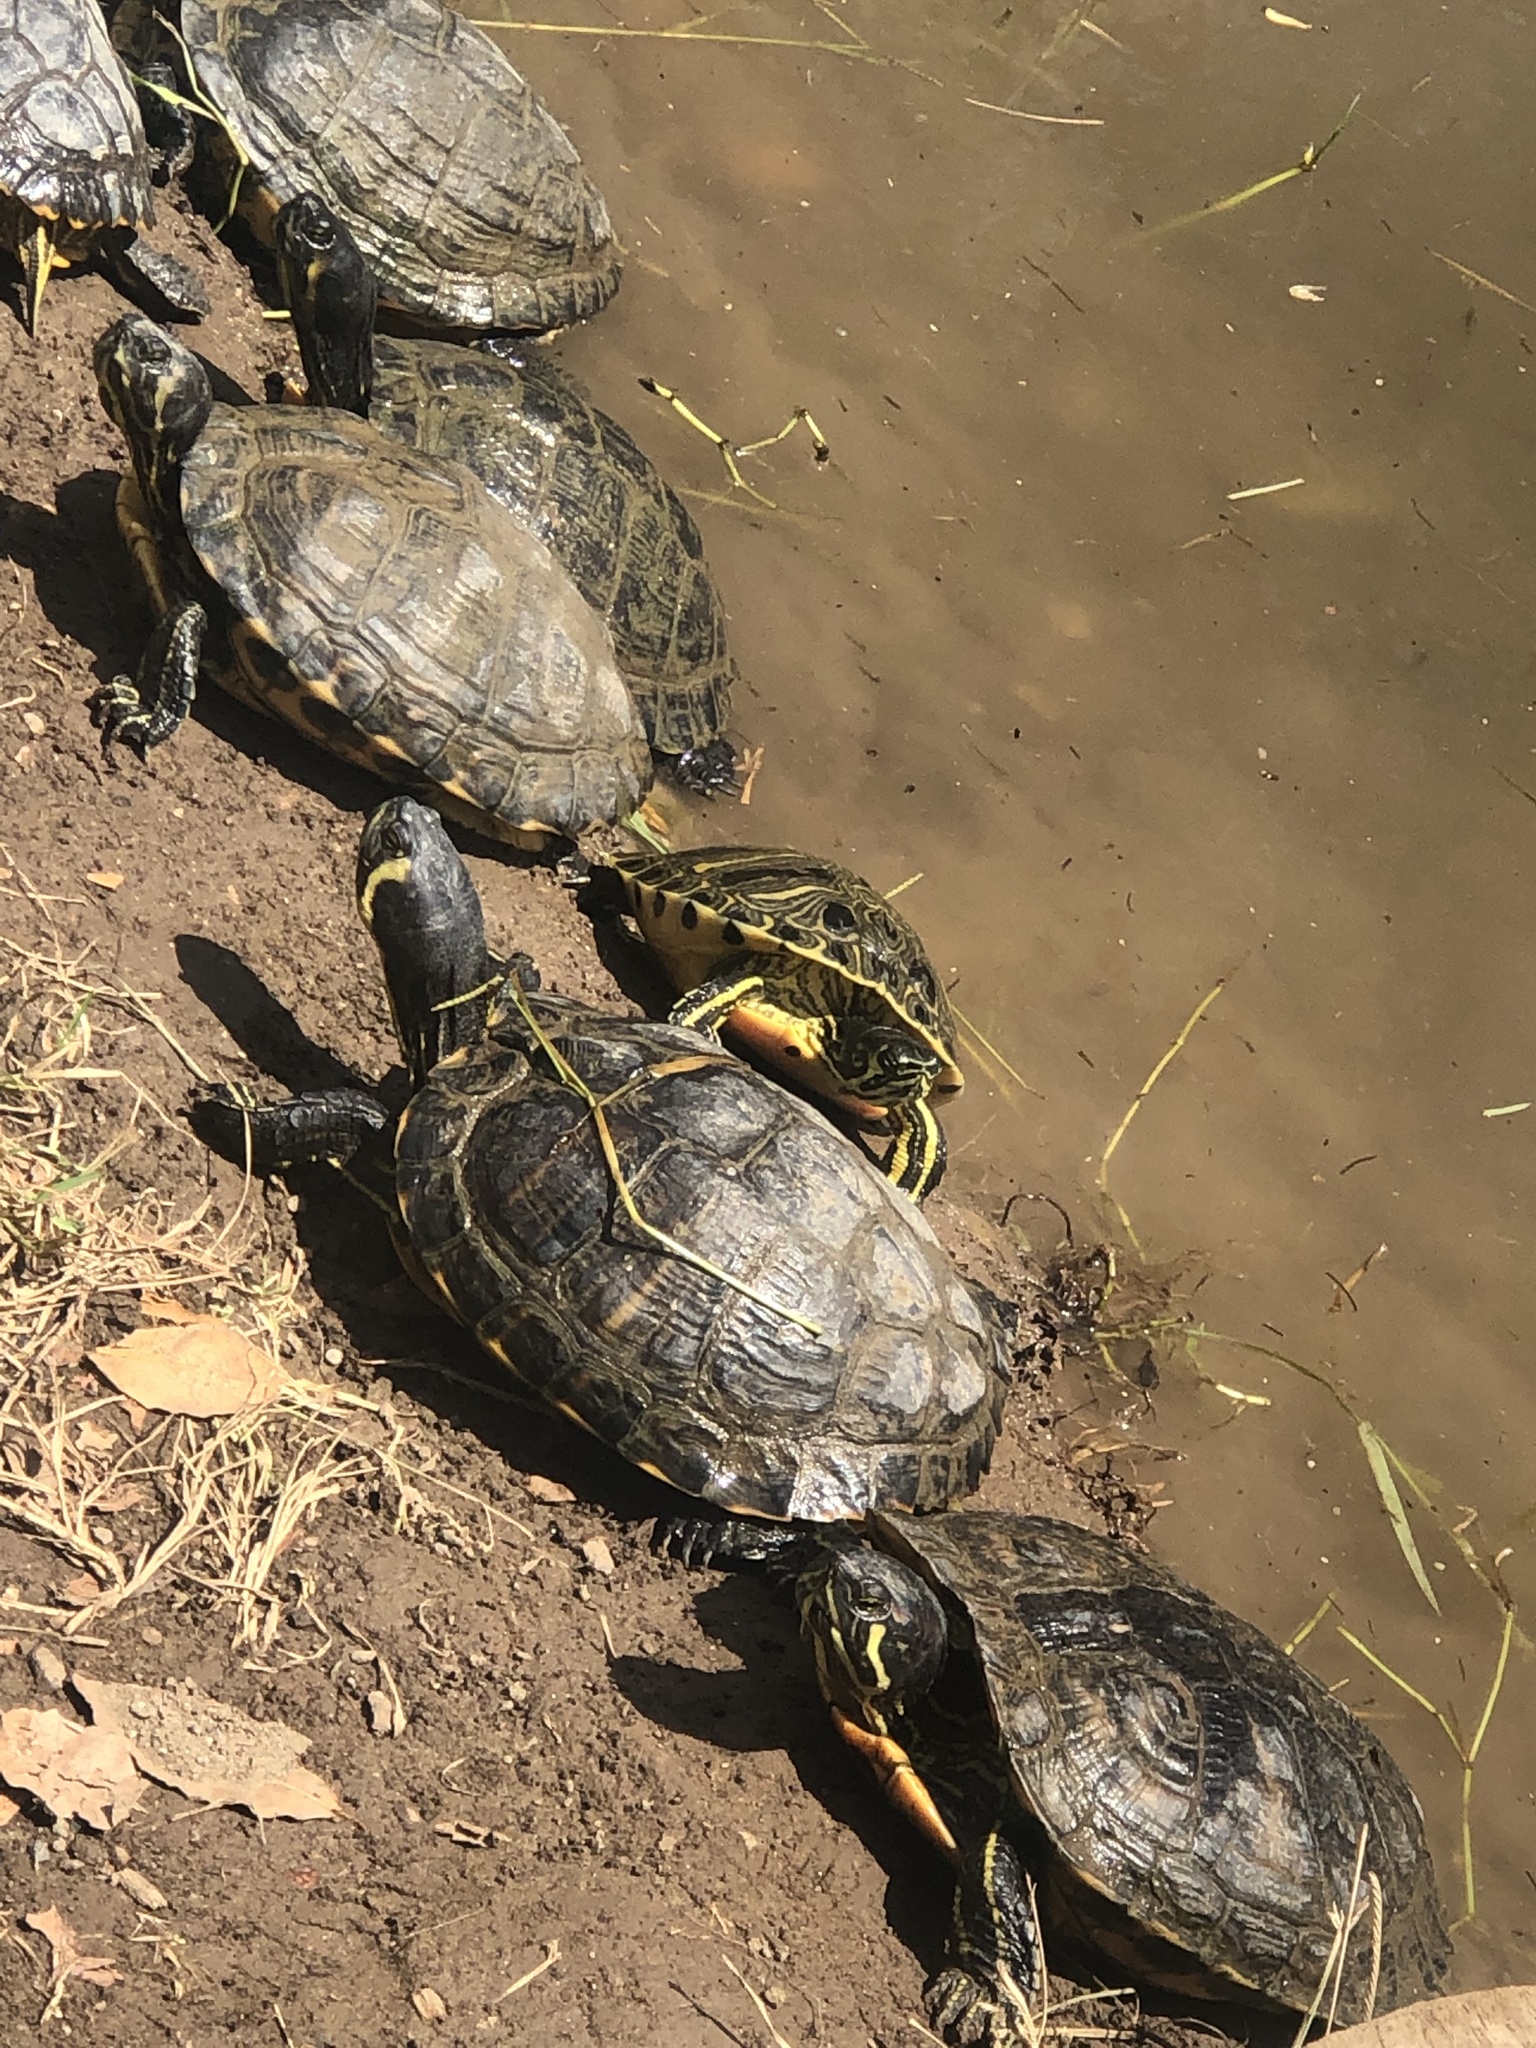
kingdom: Animalia
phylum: Chordata
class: Testudines
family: Emydidae
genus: Trachemys
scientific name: Trachemys scripta
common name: Slider
